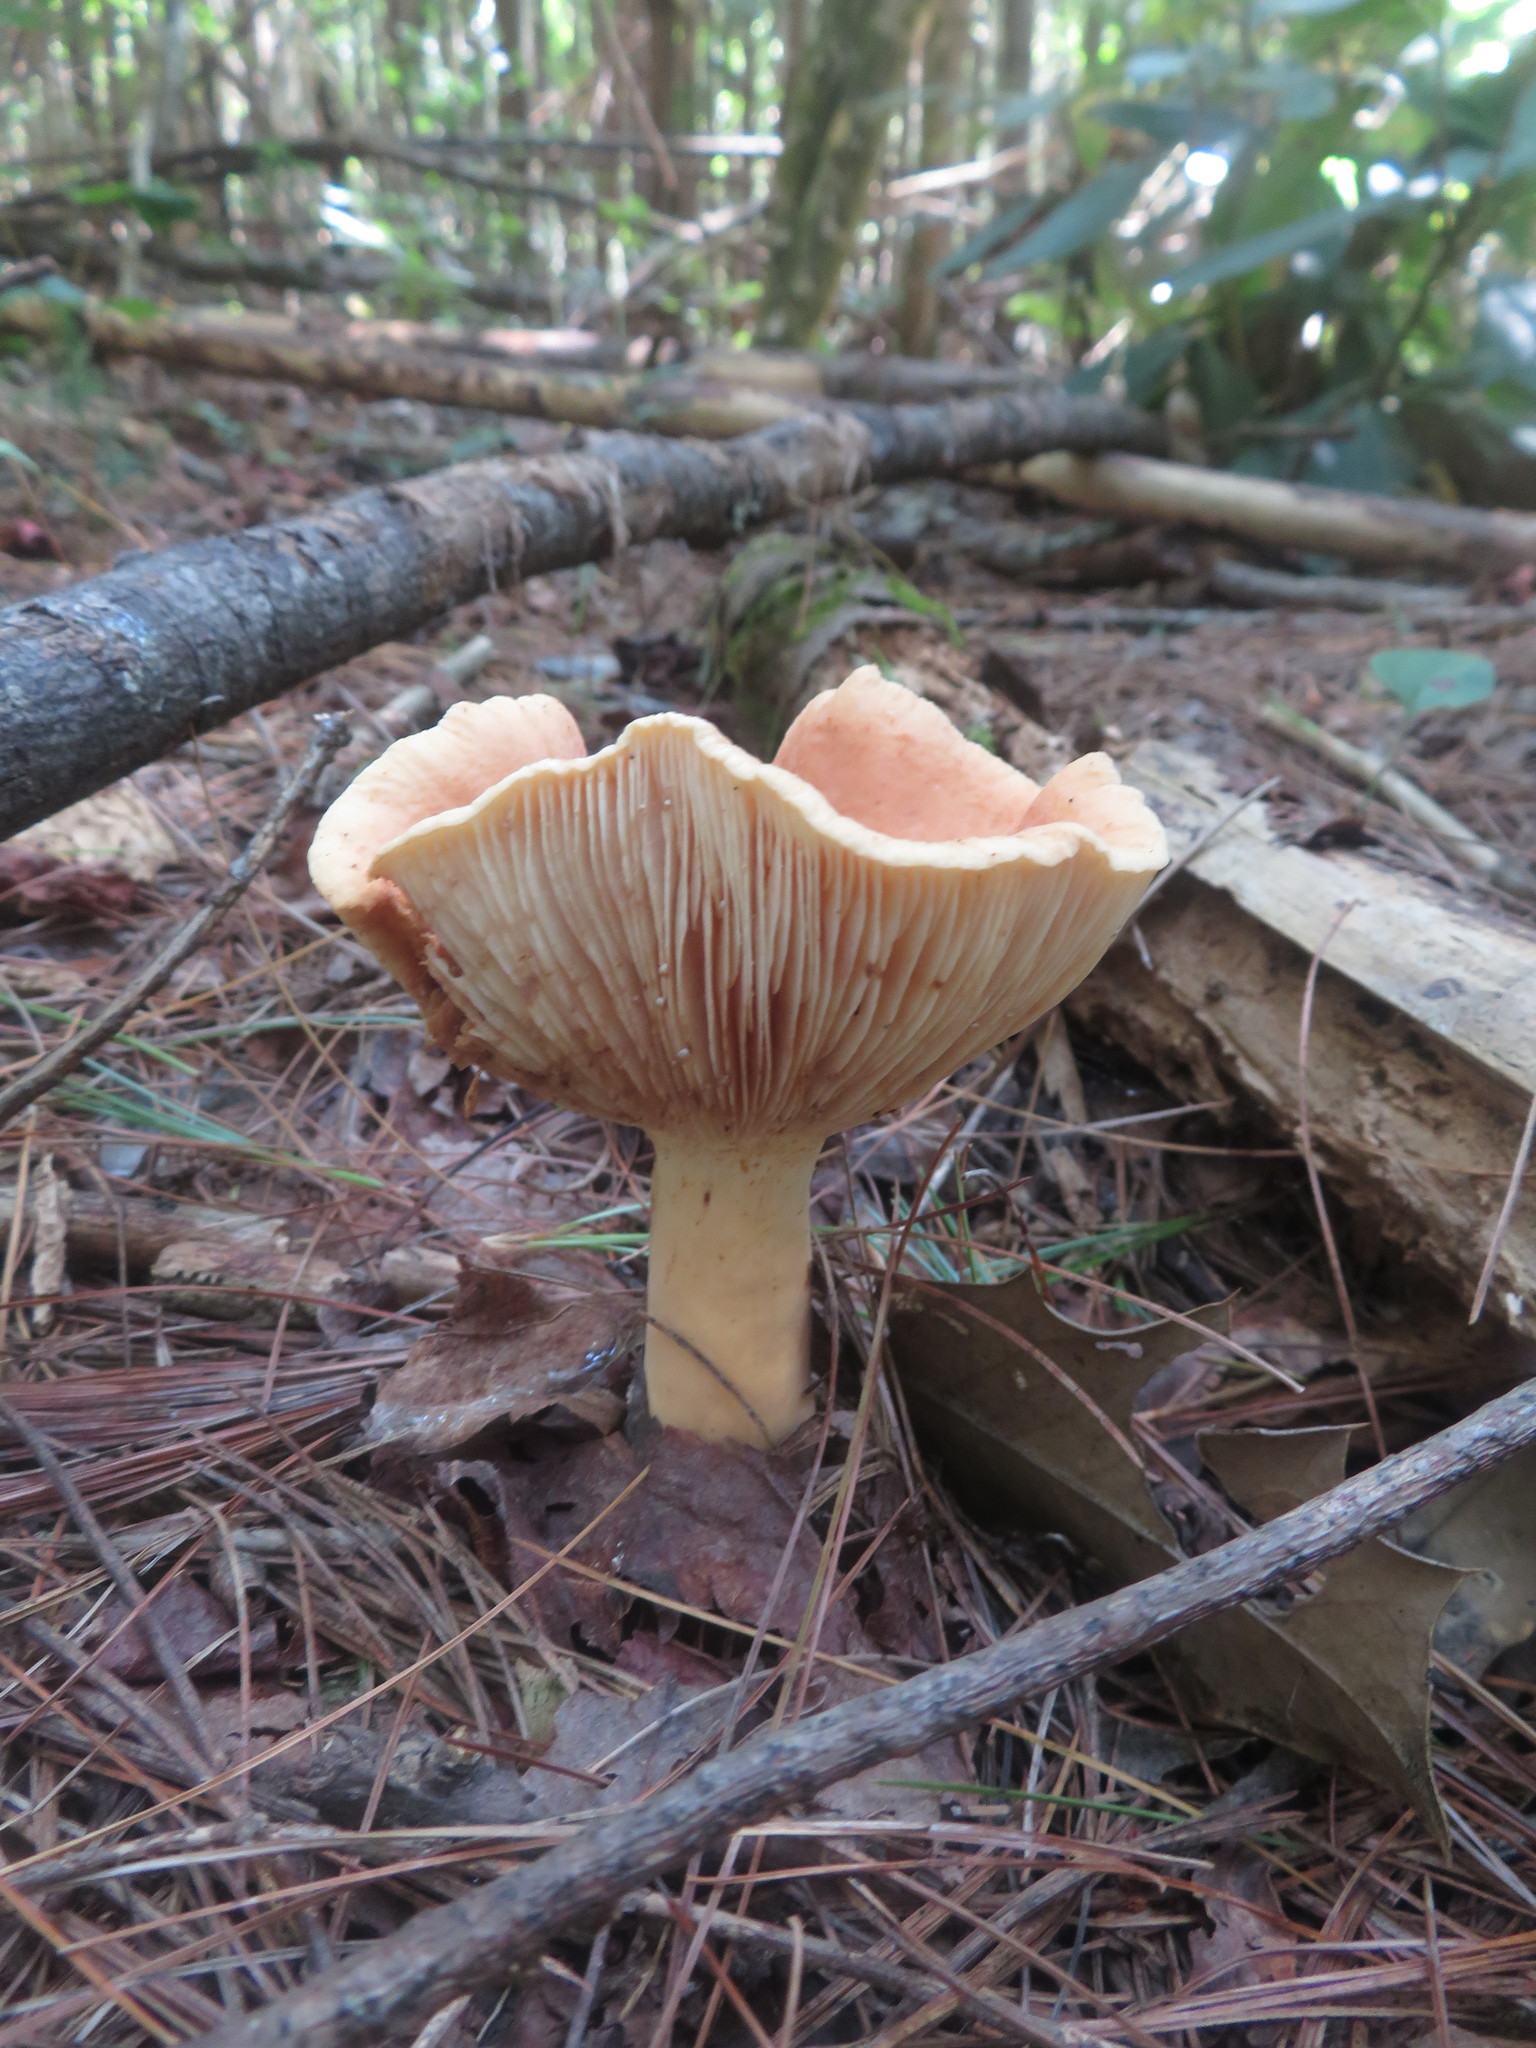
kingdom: Fungi
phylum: Basidiomycota
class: Agaricomycetes
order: Russulales
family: Russulaceae
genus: Lactifluus
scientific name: Lactifluus volemus
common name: Fishy milkcap
